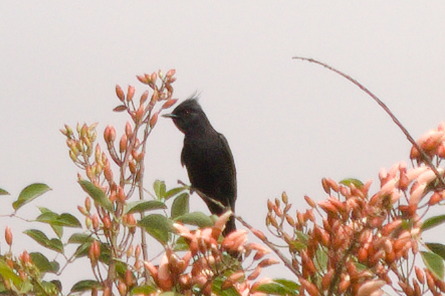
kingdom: Animalia
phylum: Chordata
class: Aves
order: Passeriformes
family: Tyrannidae
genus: Knipolegus
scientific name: Knipolegus lophotes
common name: Crested black tyrant
